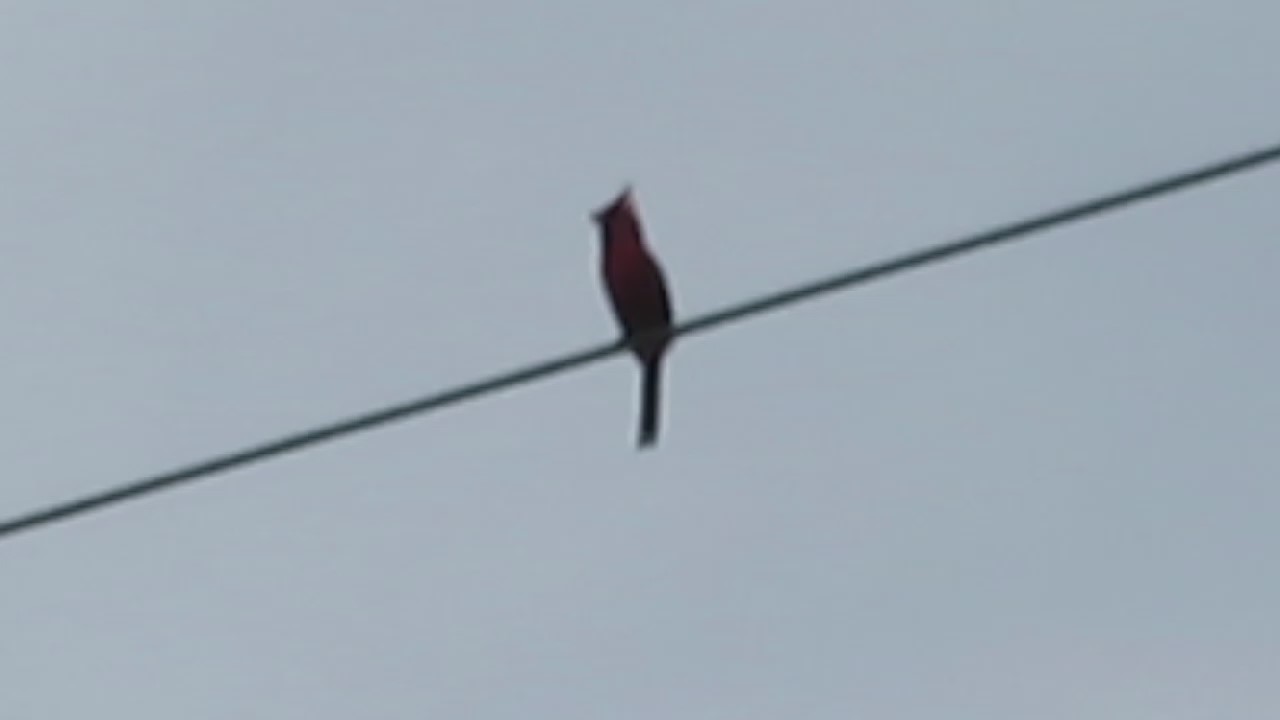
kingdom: Animalia
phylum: Chordata
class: Aves
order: Passeriformes
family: Cardinalidae
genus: Cardinalis
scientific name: Cardinalis cardinalis
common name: Northern cardinal
